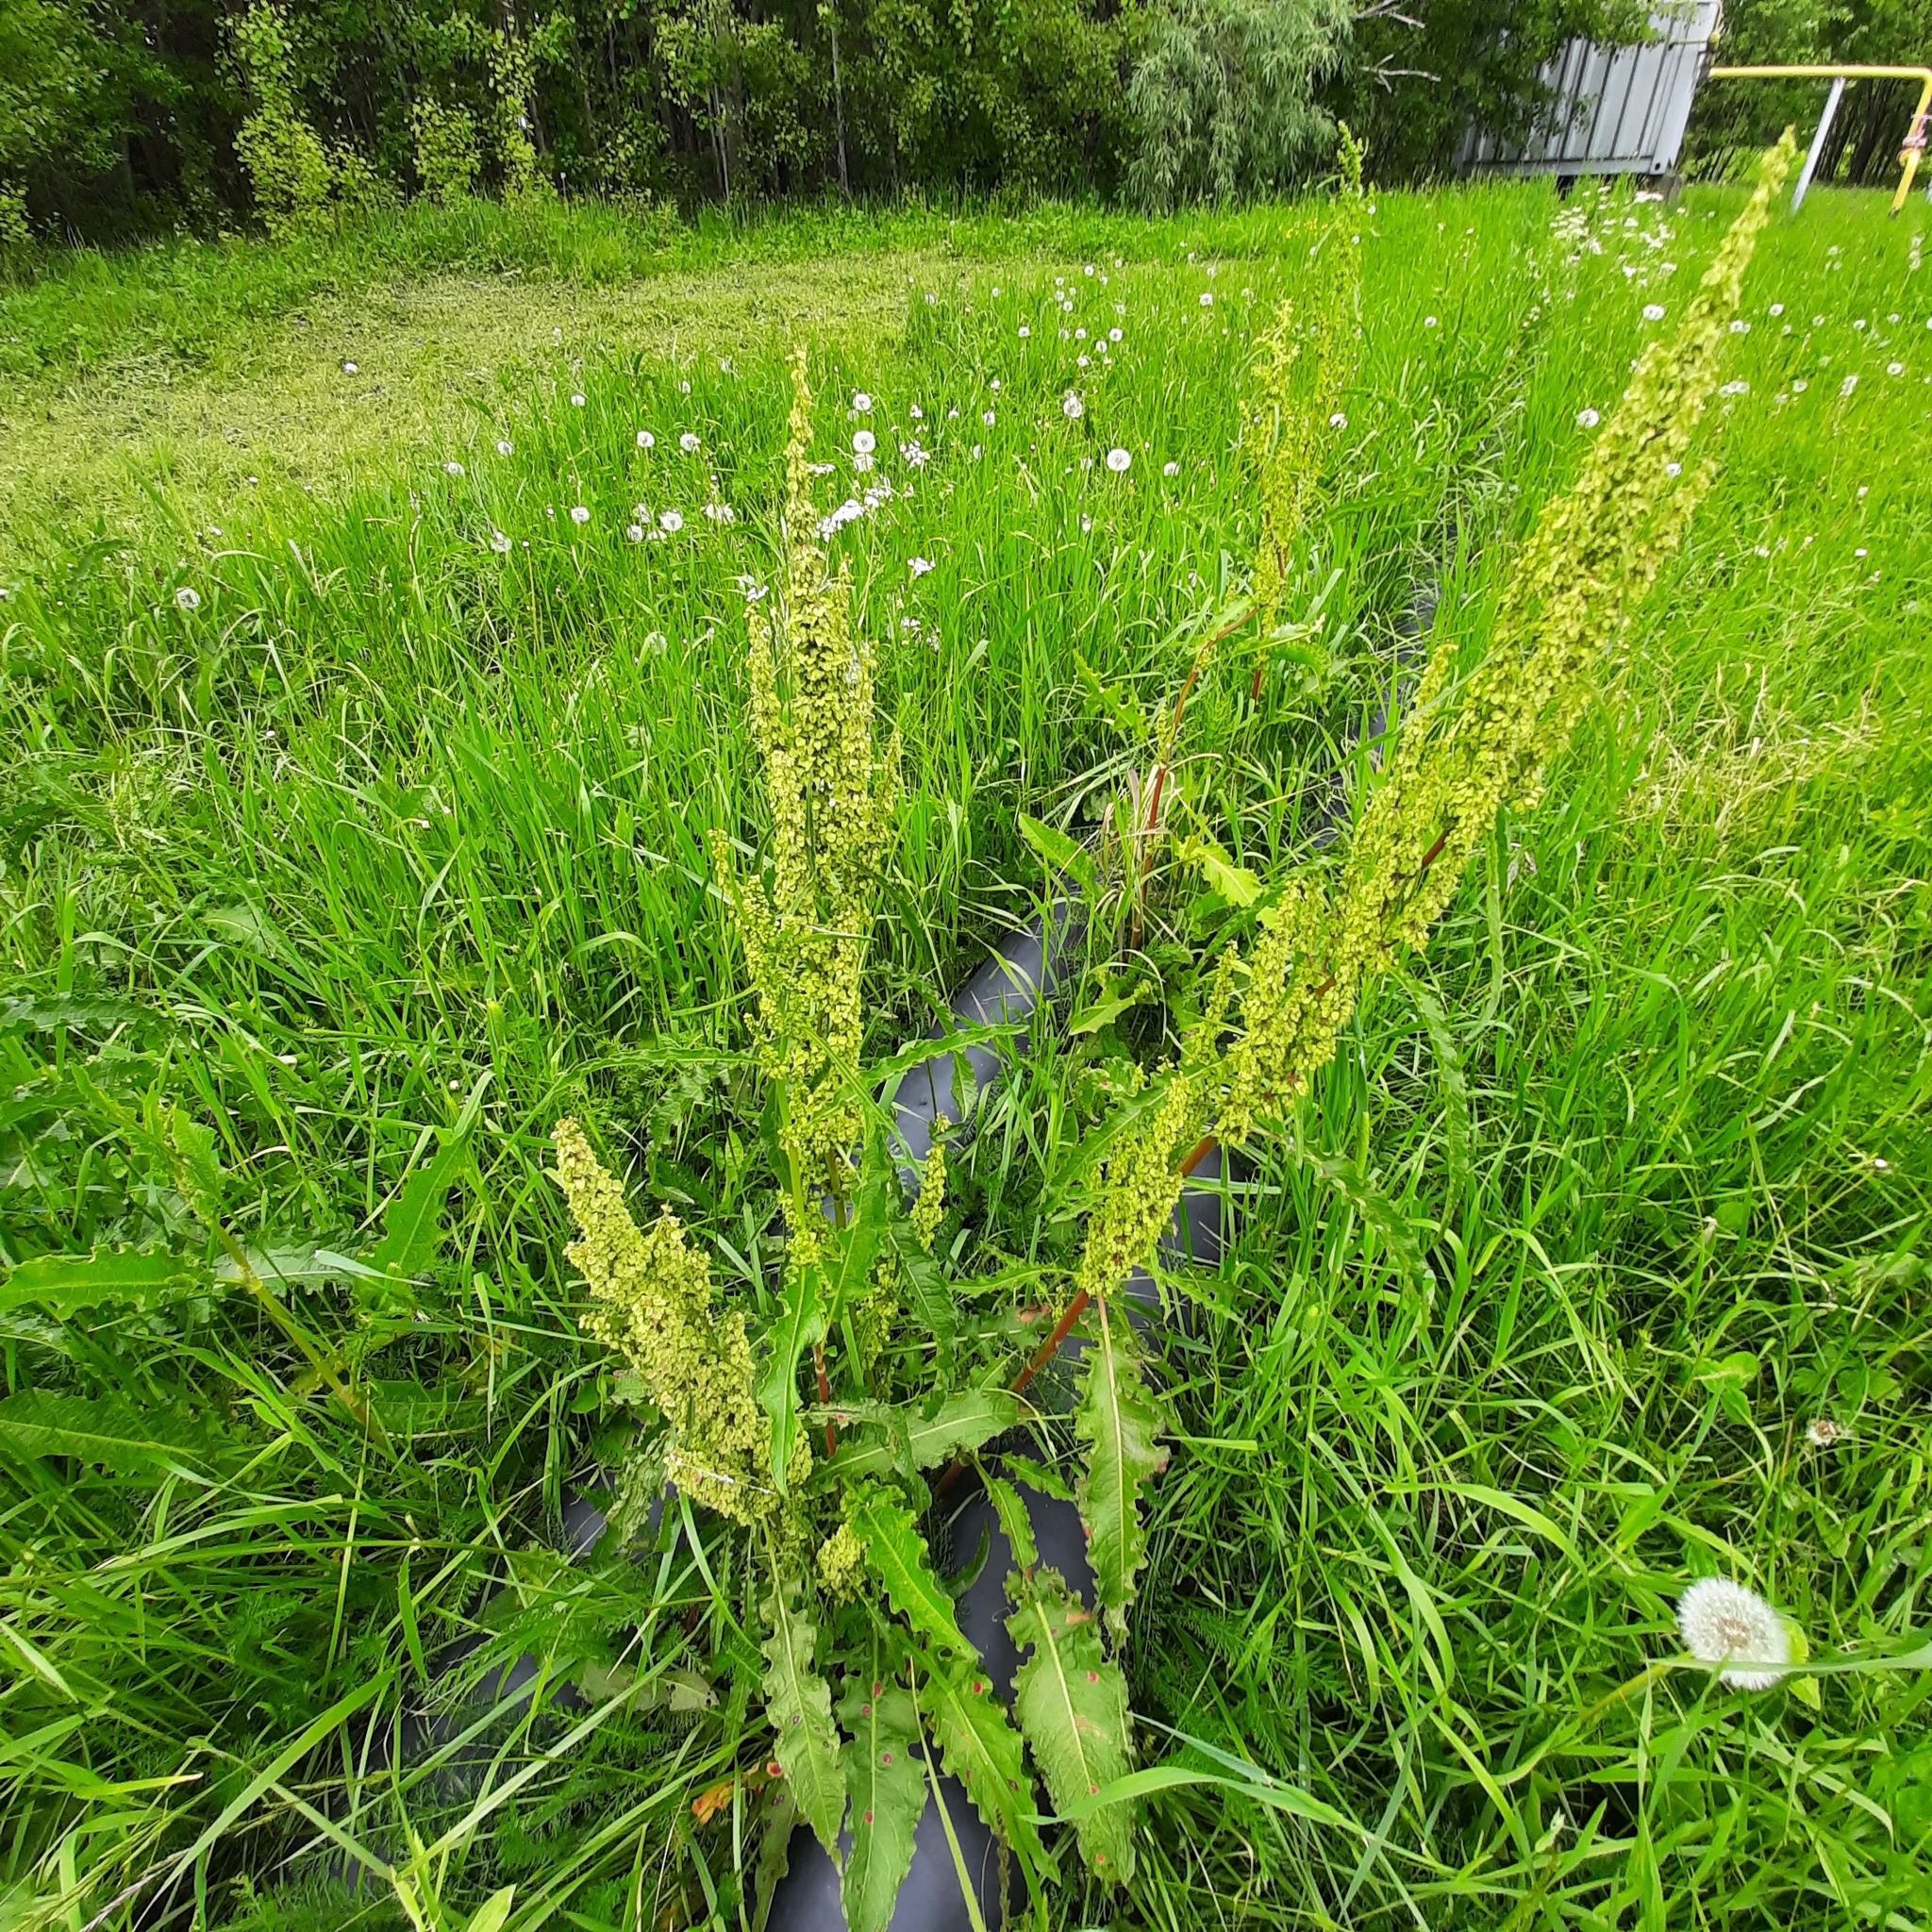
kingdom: Plantae
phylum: Tracheophyta
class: Magnoliopsida
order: Caryophyllales
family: Polygonaceae
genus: Rumex
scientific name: Rumex pseudonatronatus
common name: Field dock
